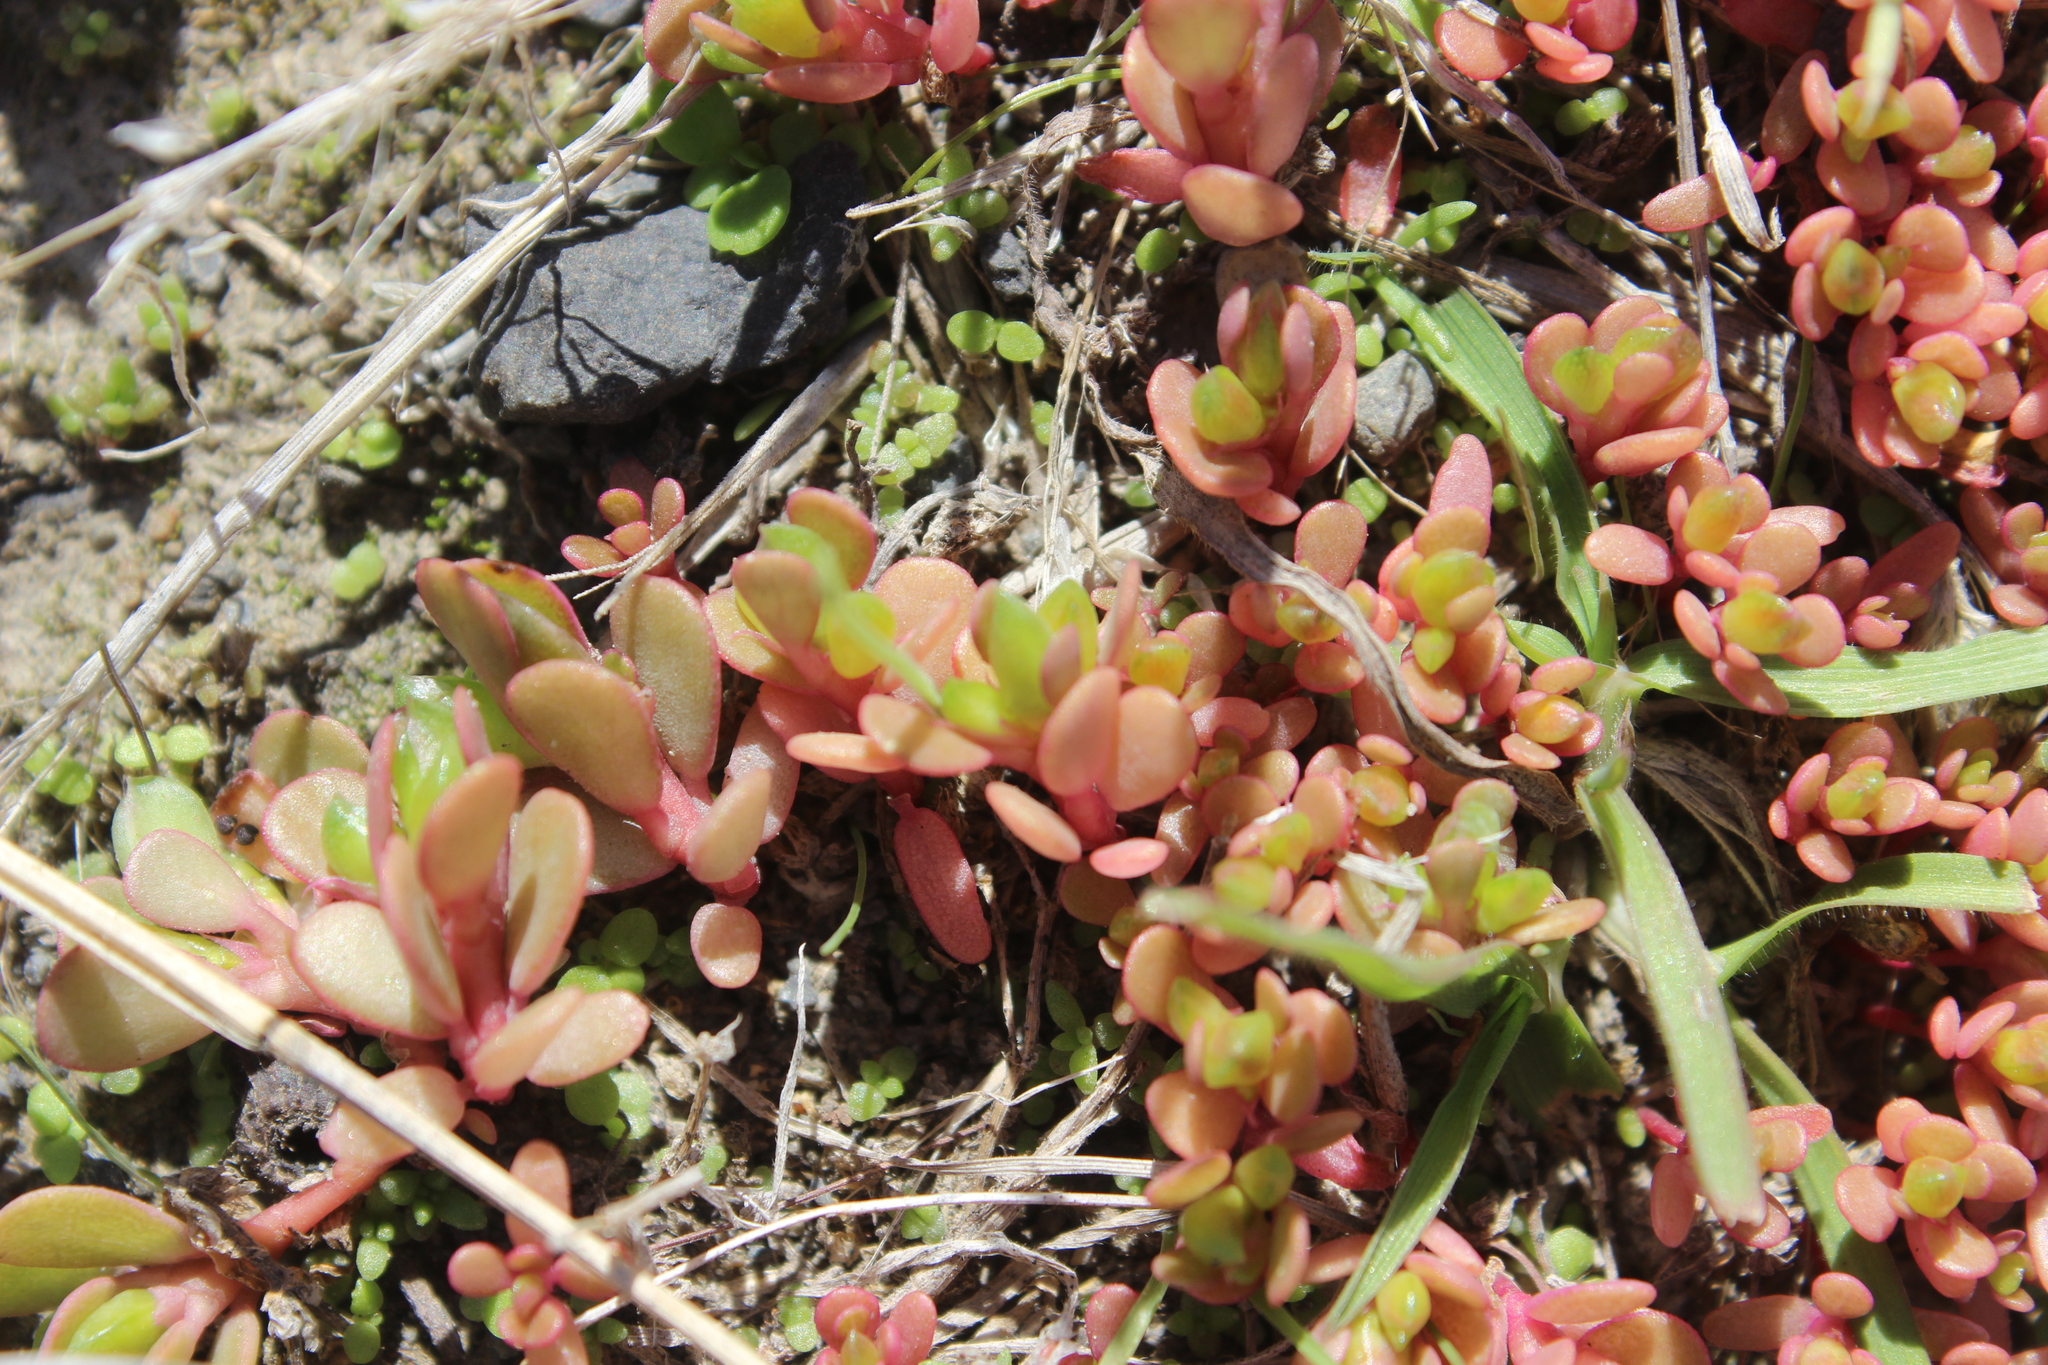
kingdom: Plantae
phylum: Tracheophyta
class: Magnoliopsida
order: Caryophyllales
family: Portulacaceae
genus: Portulaca
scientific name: Portulaca oleracea
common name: Common purslane
